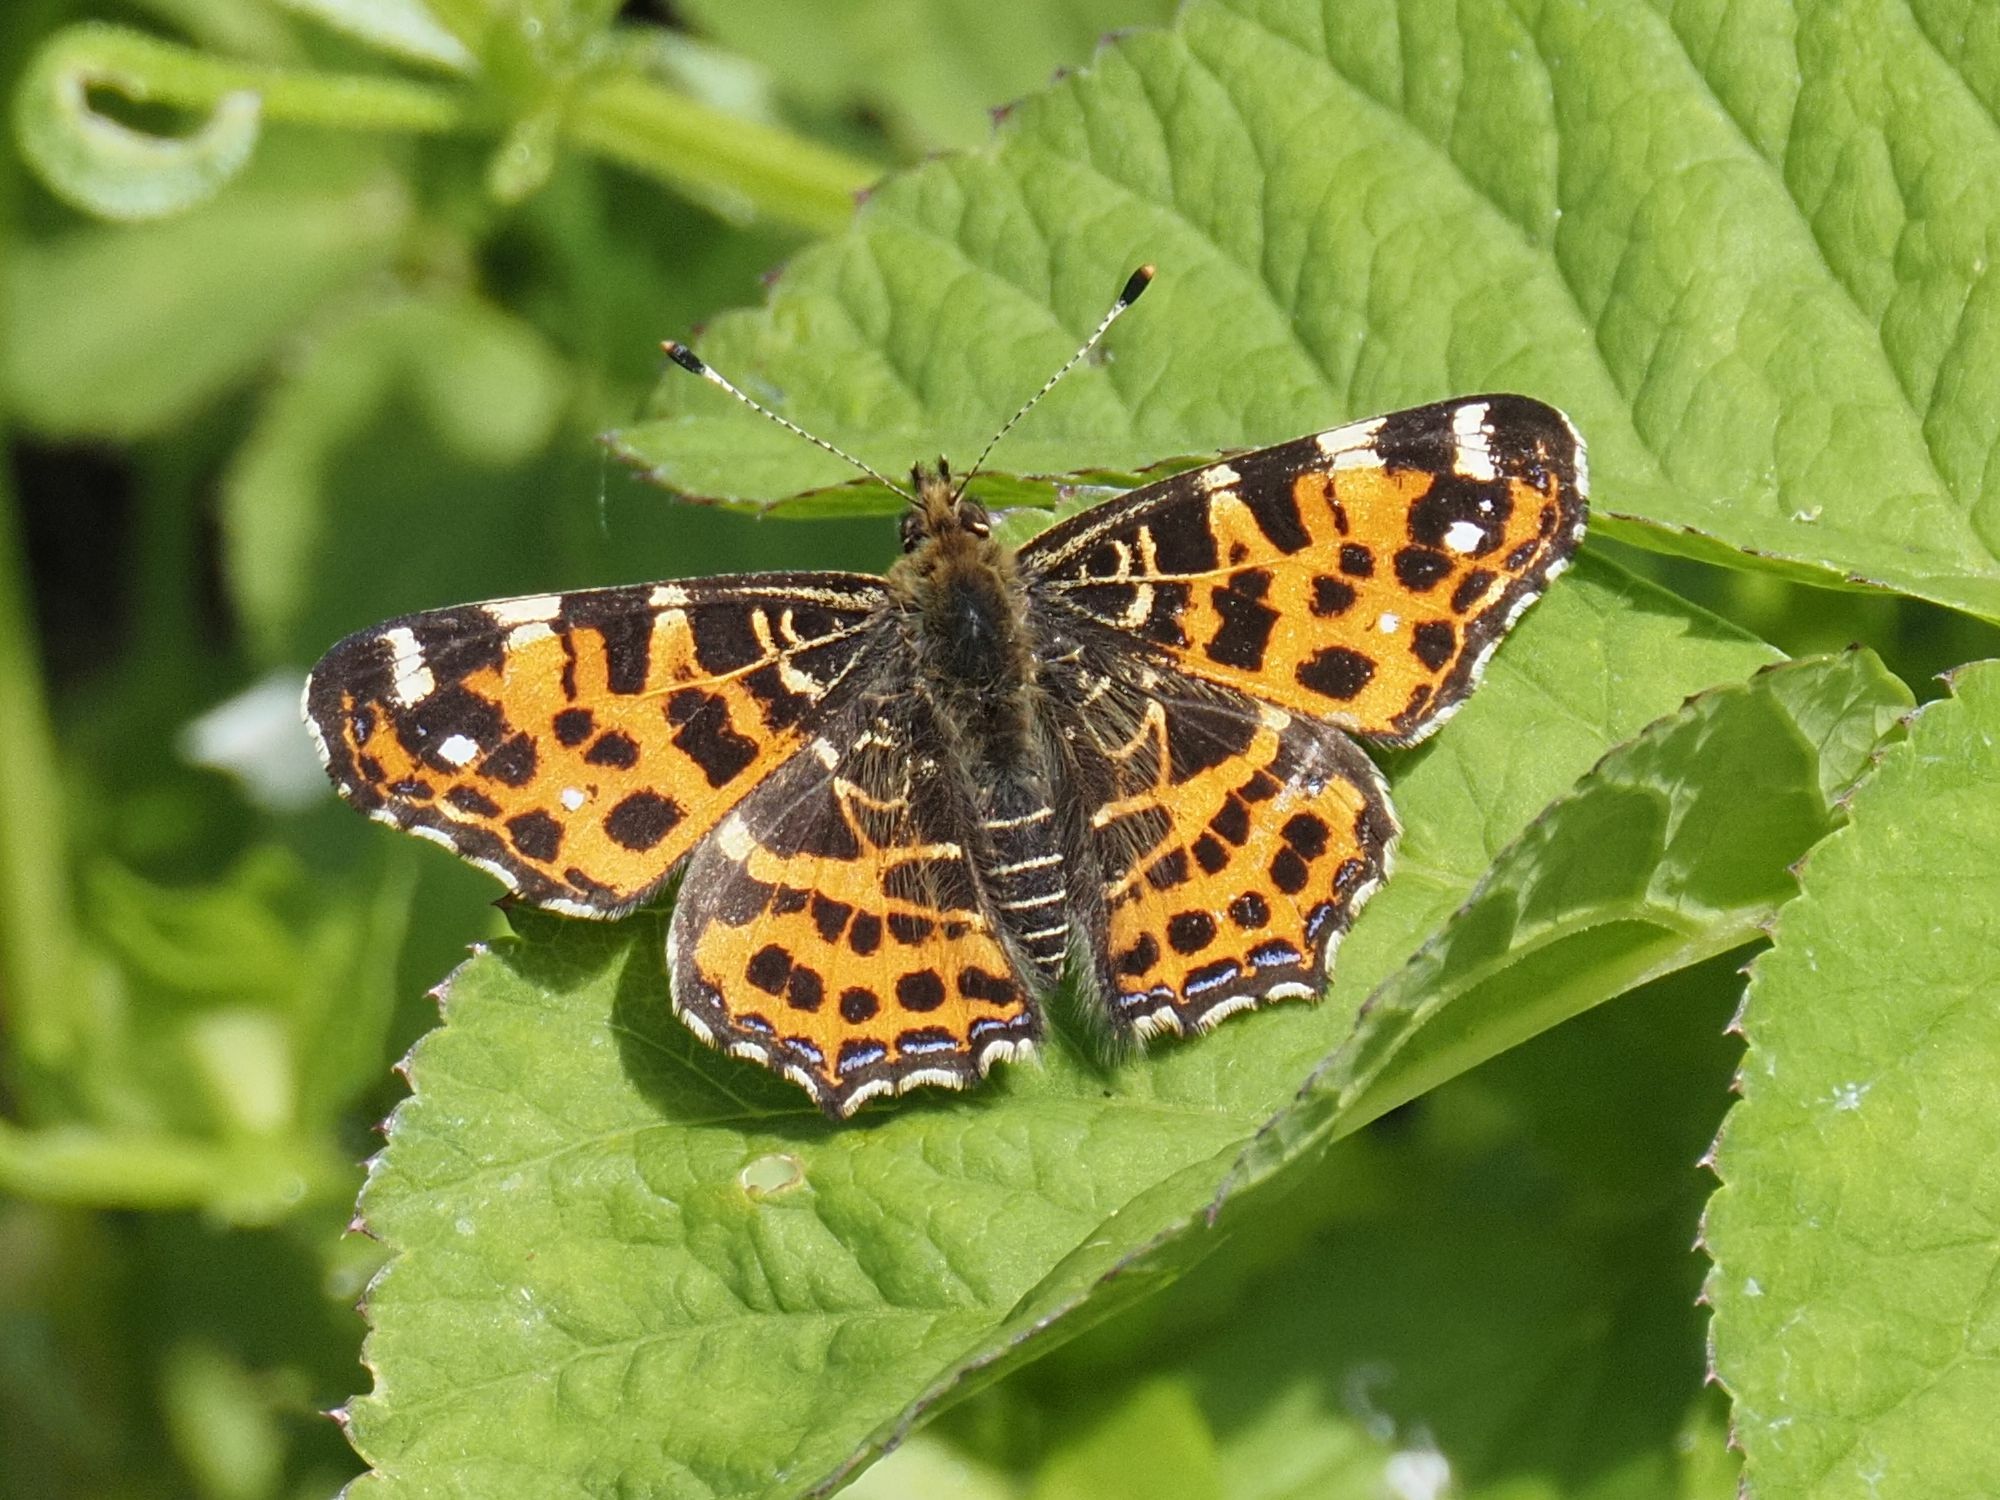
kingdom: Animalia
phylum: Arthropoda
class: Insecta
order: Lepidoptera
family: Nymphalidae
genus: Araschnia
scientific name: Araschnia levana
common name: Map butterfly
